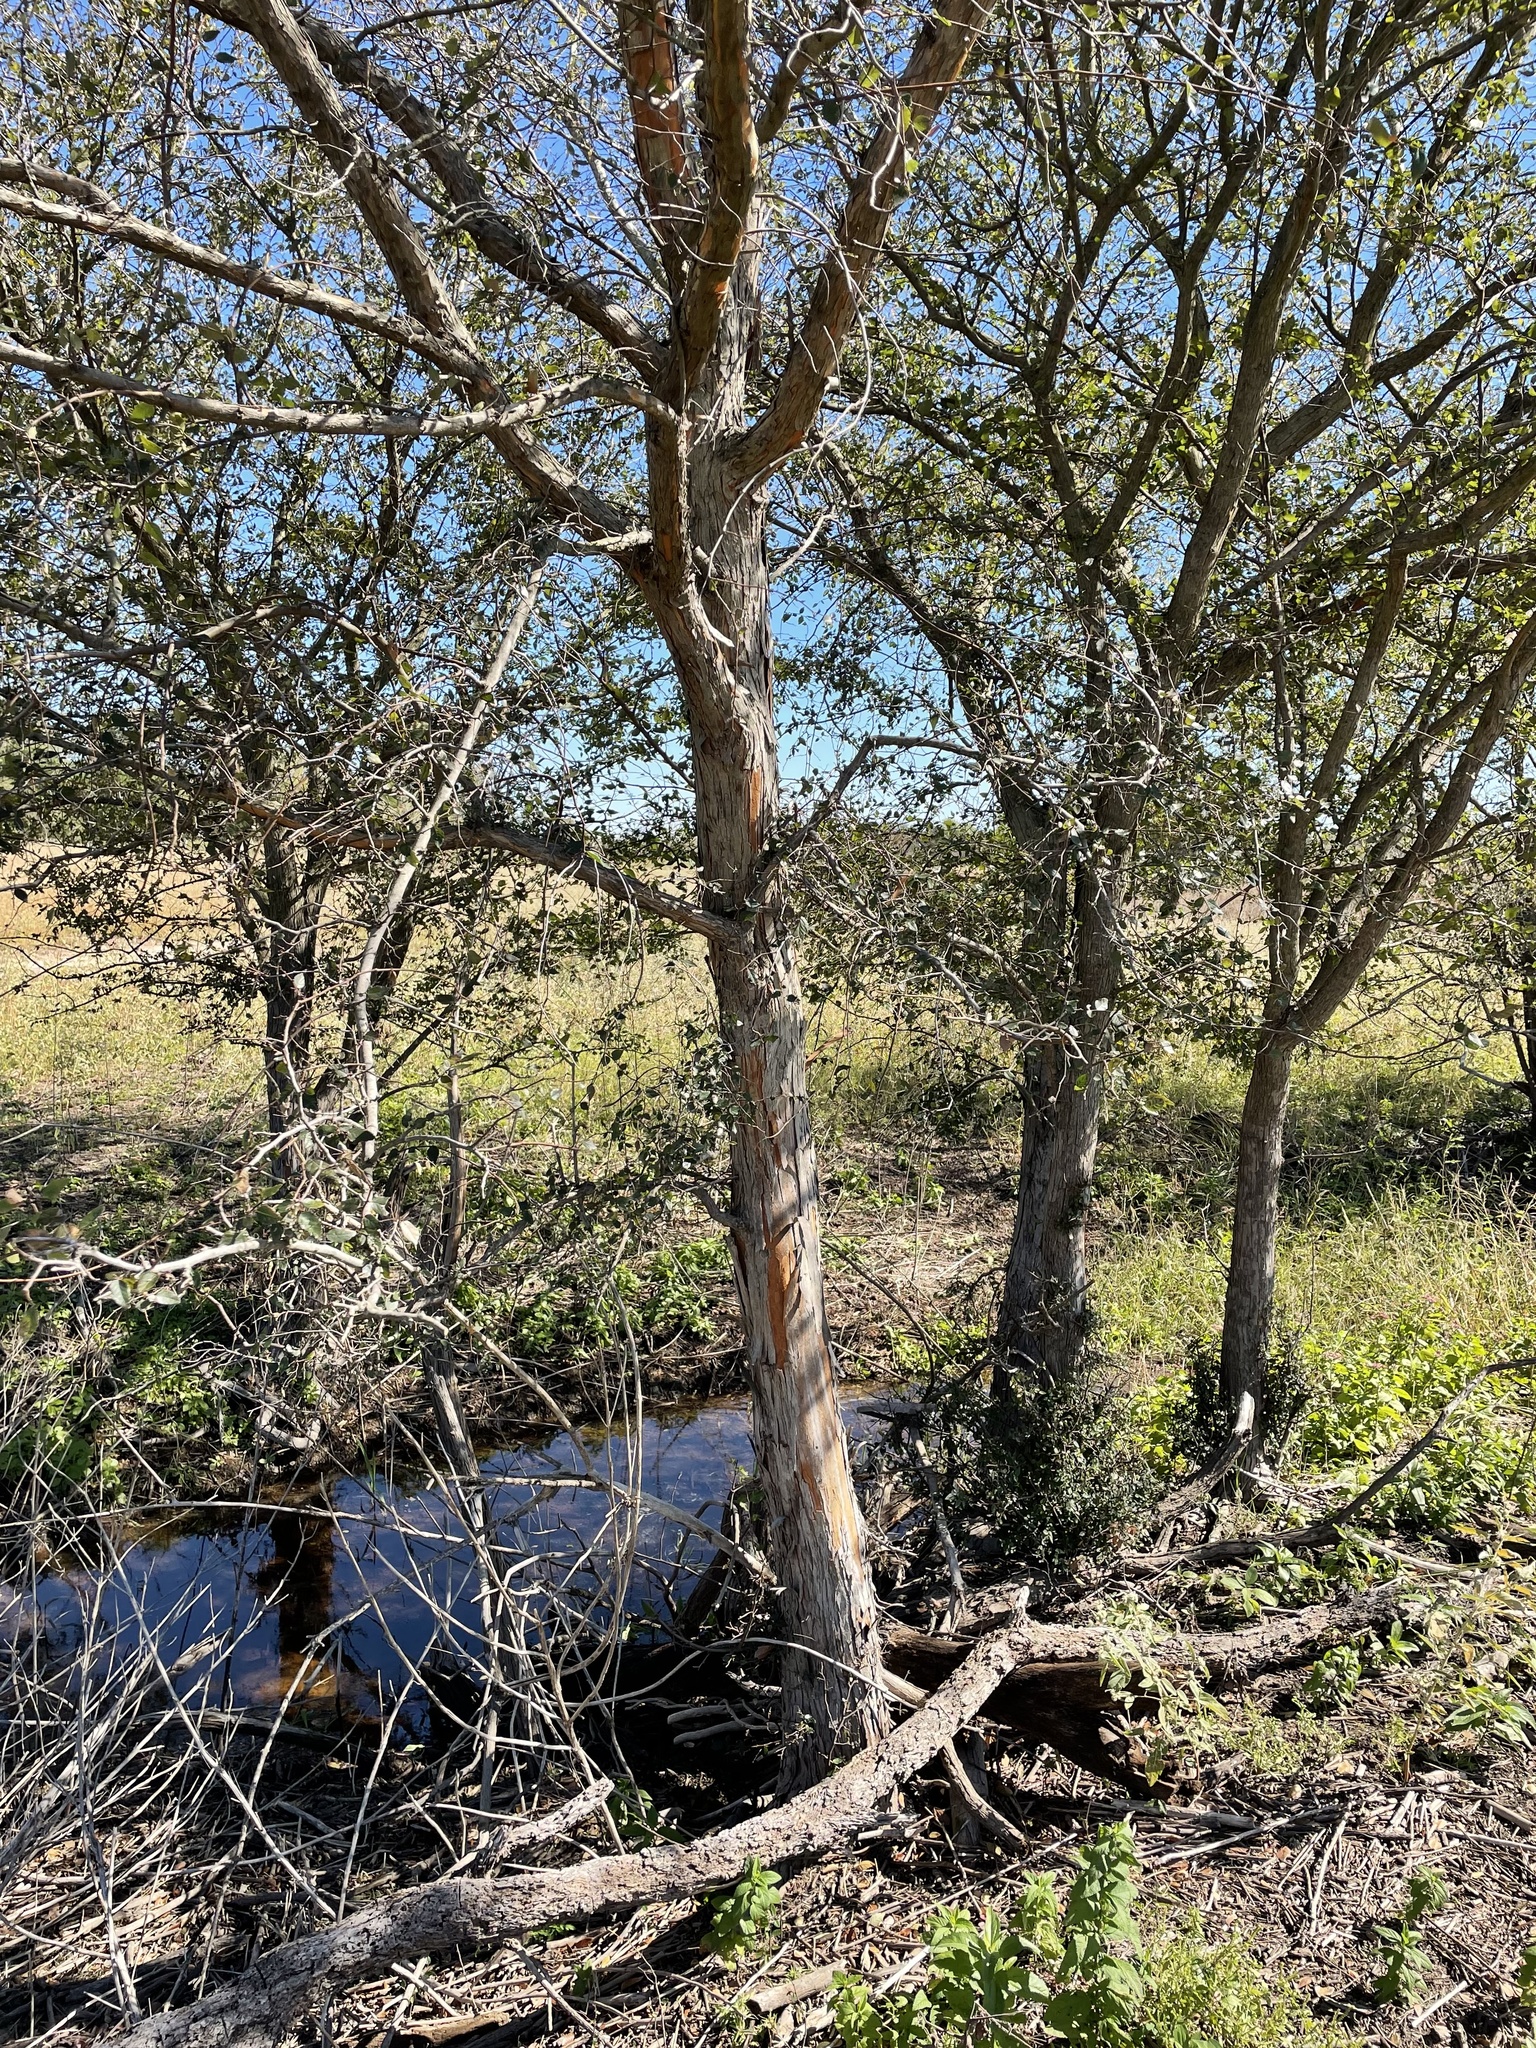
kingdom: Plantae
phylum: Tracheophyta
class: Magnoliopsida
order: Rosales
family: Ulmaceae
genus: Planera
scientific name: Planera aquatica
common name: Water-elm
